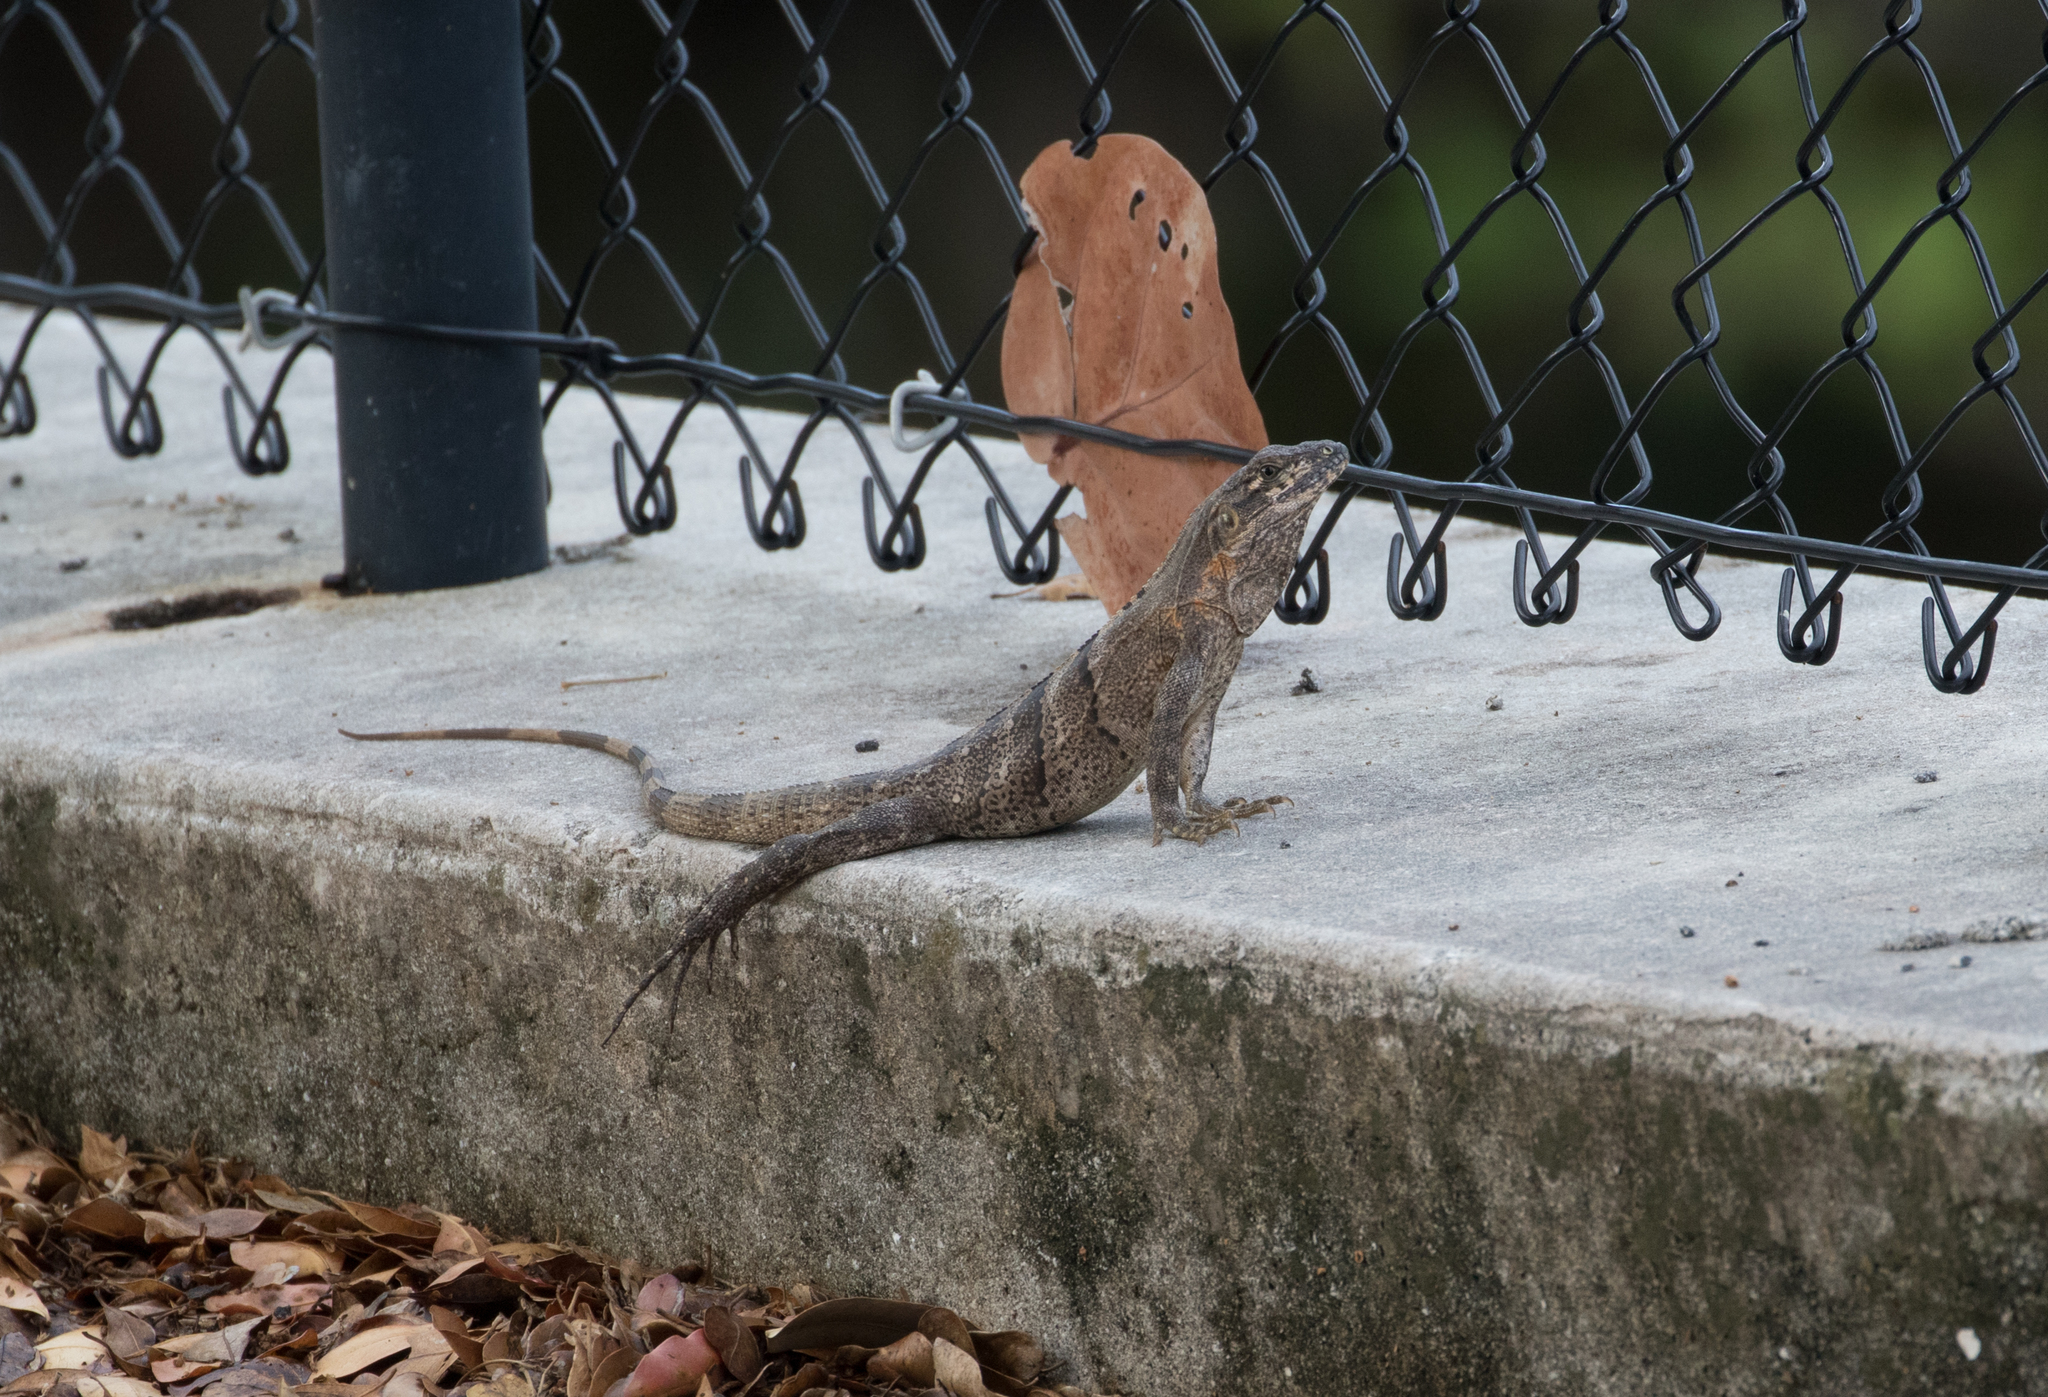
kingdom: Animalia
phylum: Chordata
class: Squamata
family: Iguanidae
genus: Ctenosaura
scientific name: Ctenosaura similis
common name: Black spiny-tailed iguana
